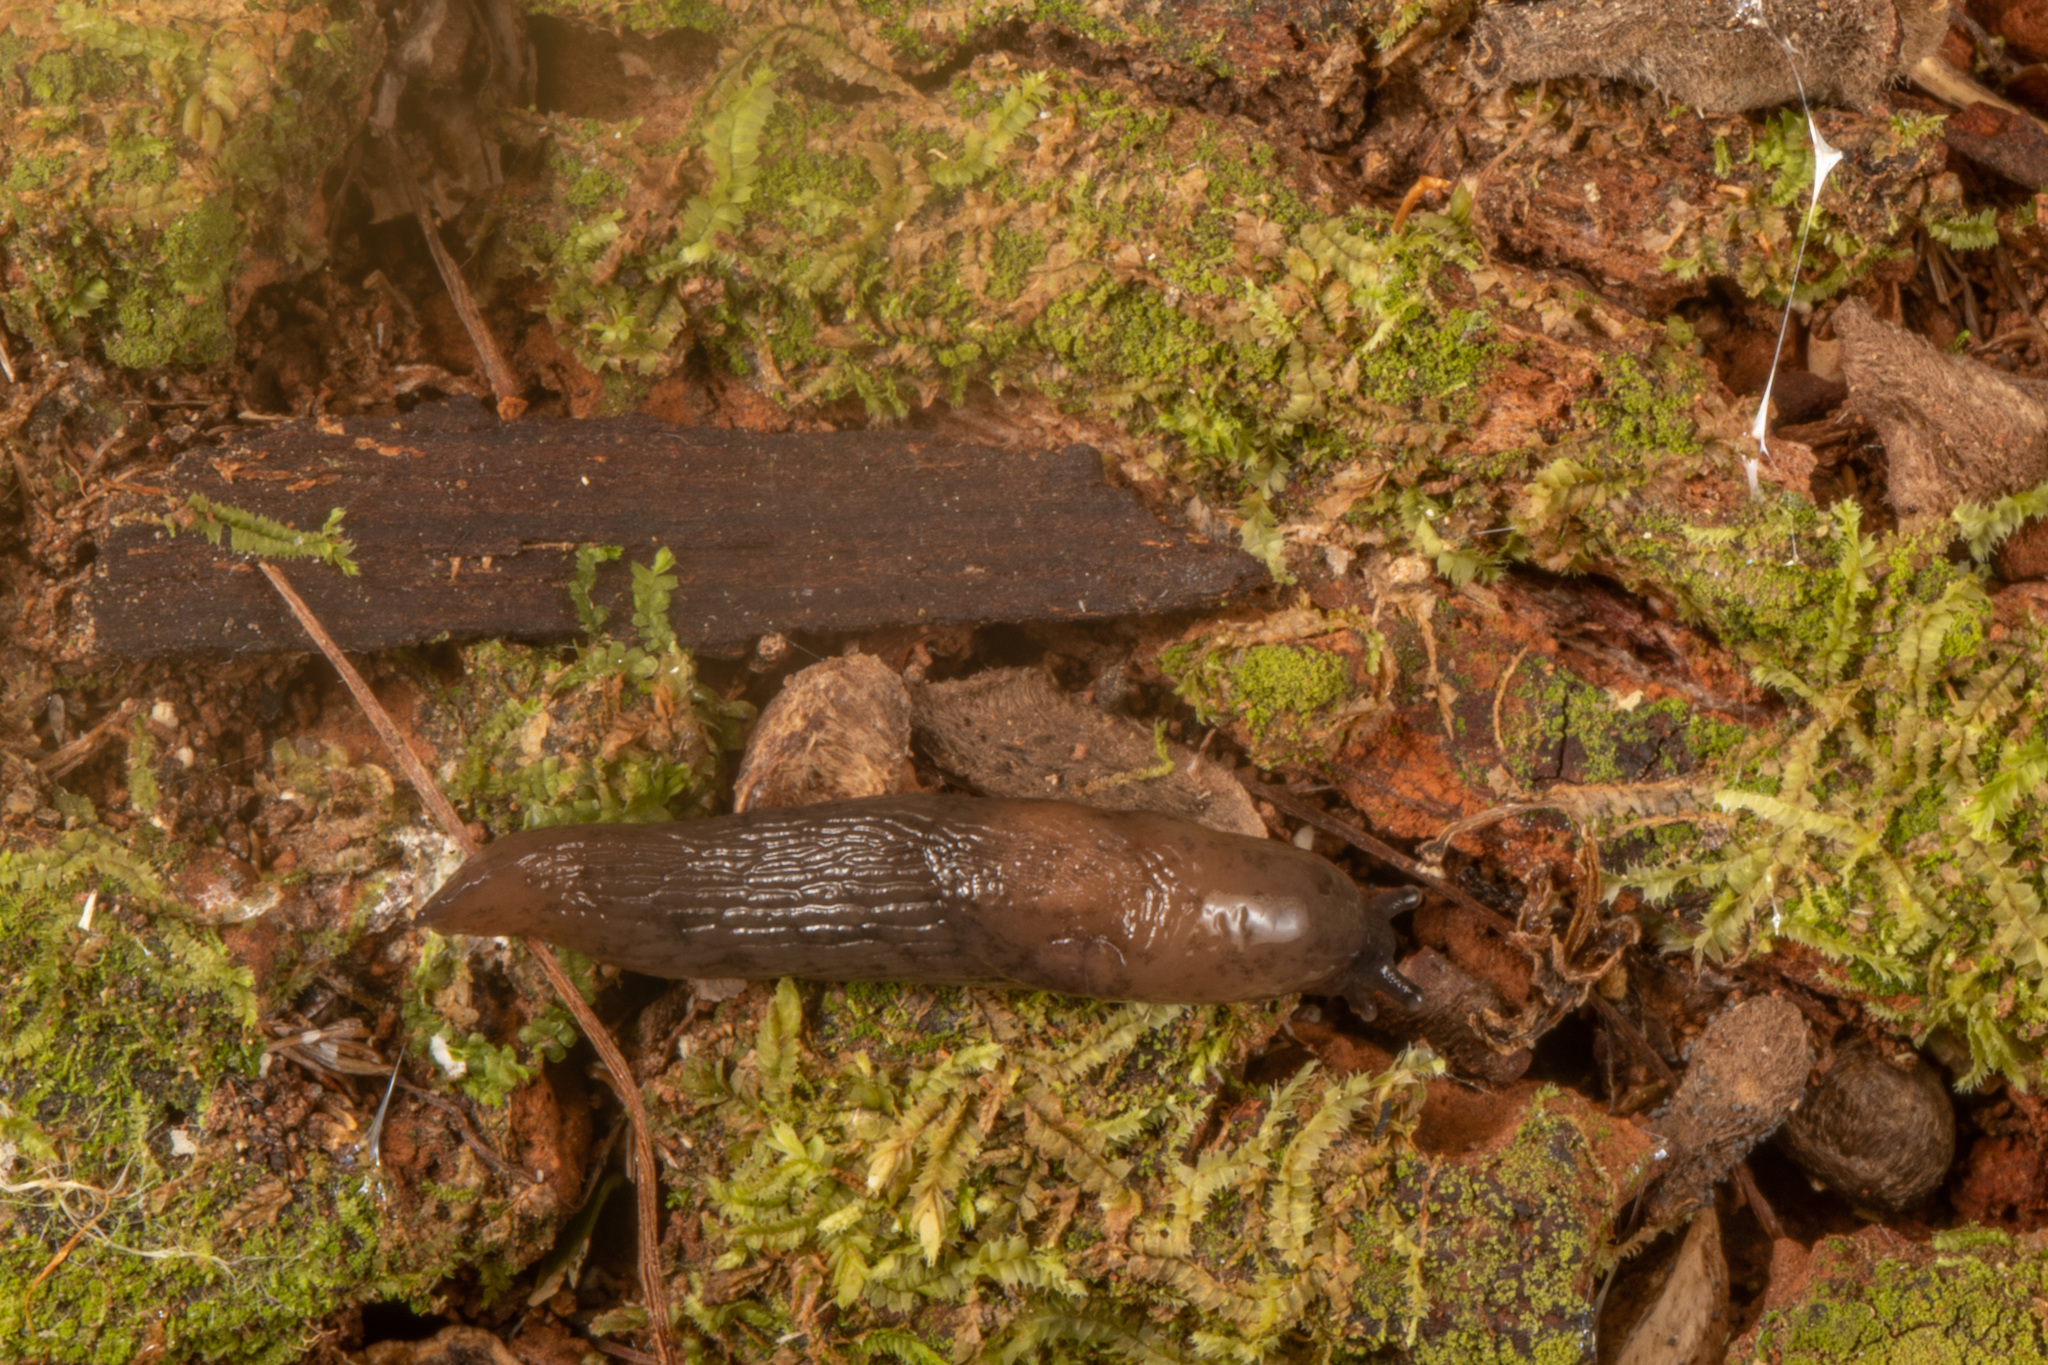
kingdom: Animalia
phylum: Mollusca
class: Gastropoda
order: Stylommatophora
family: Agriolimacidae
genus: Deroceras
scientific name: Deroceras invadens
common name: Caruana's slug
